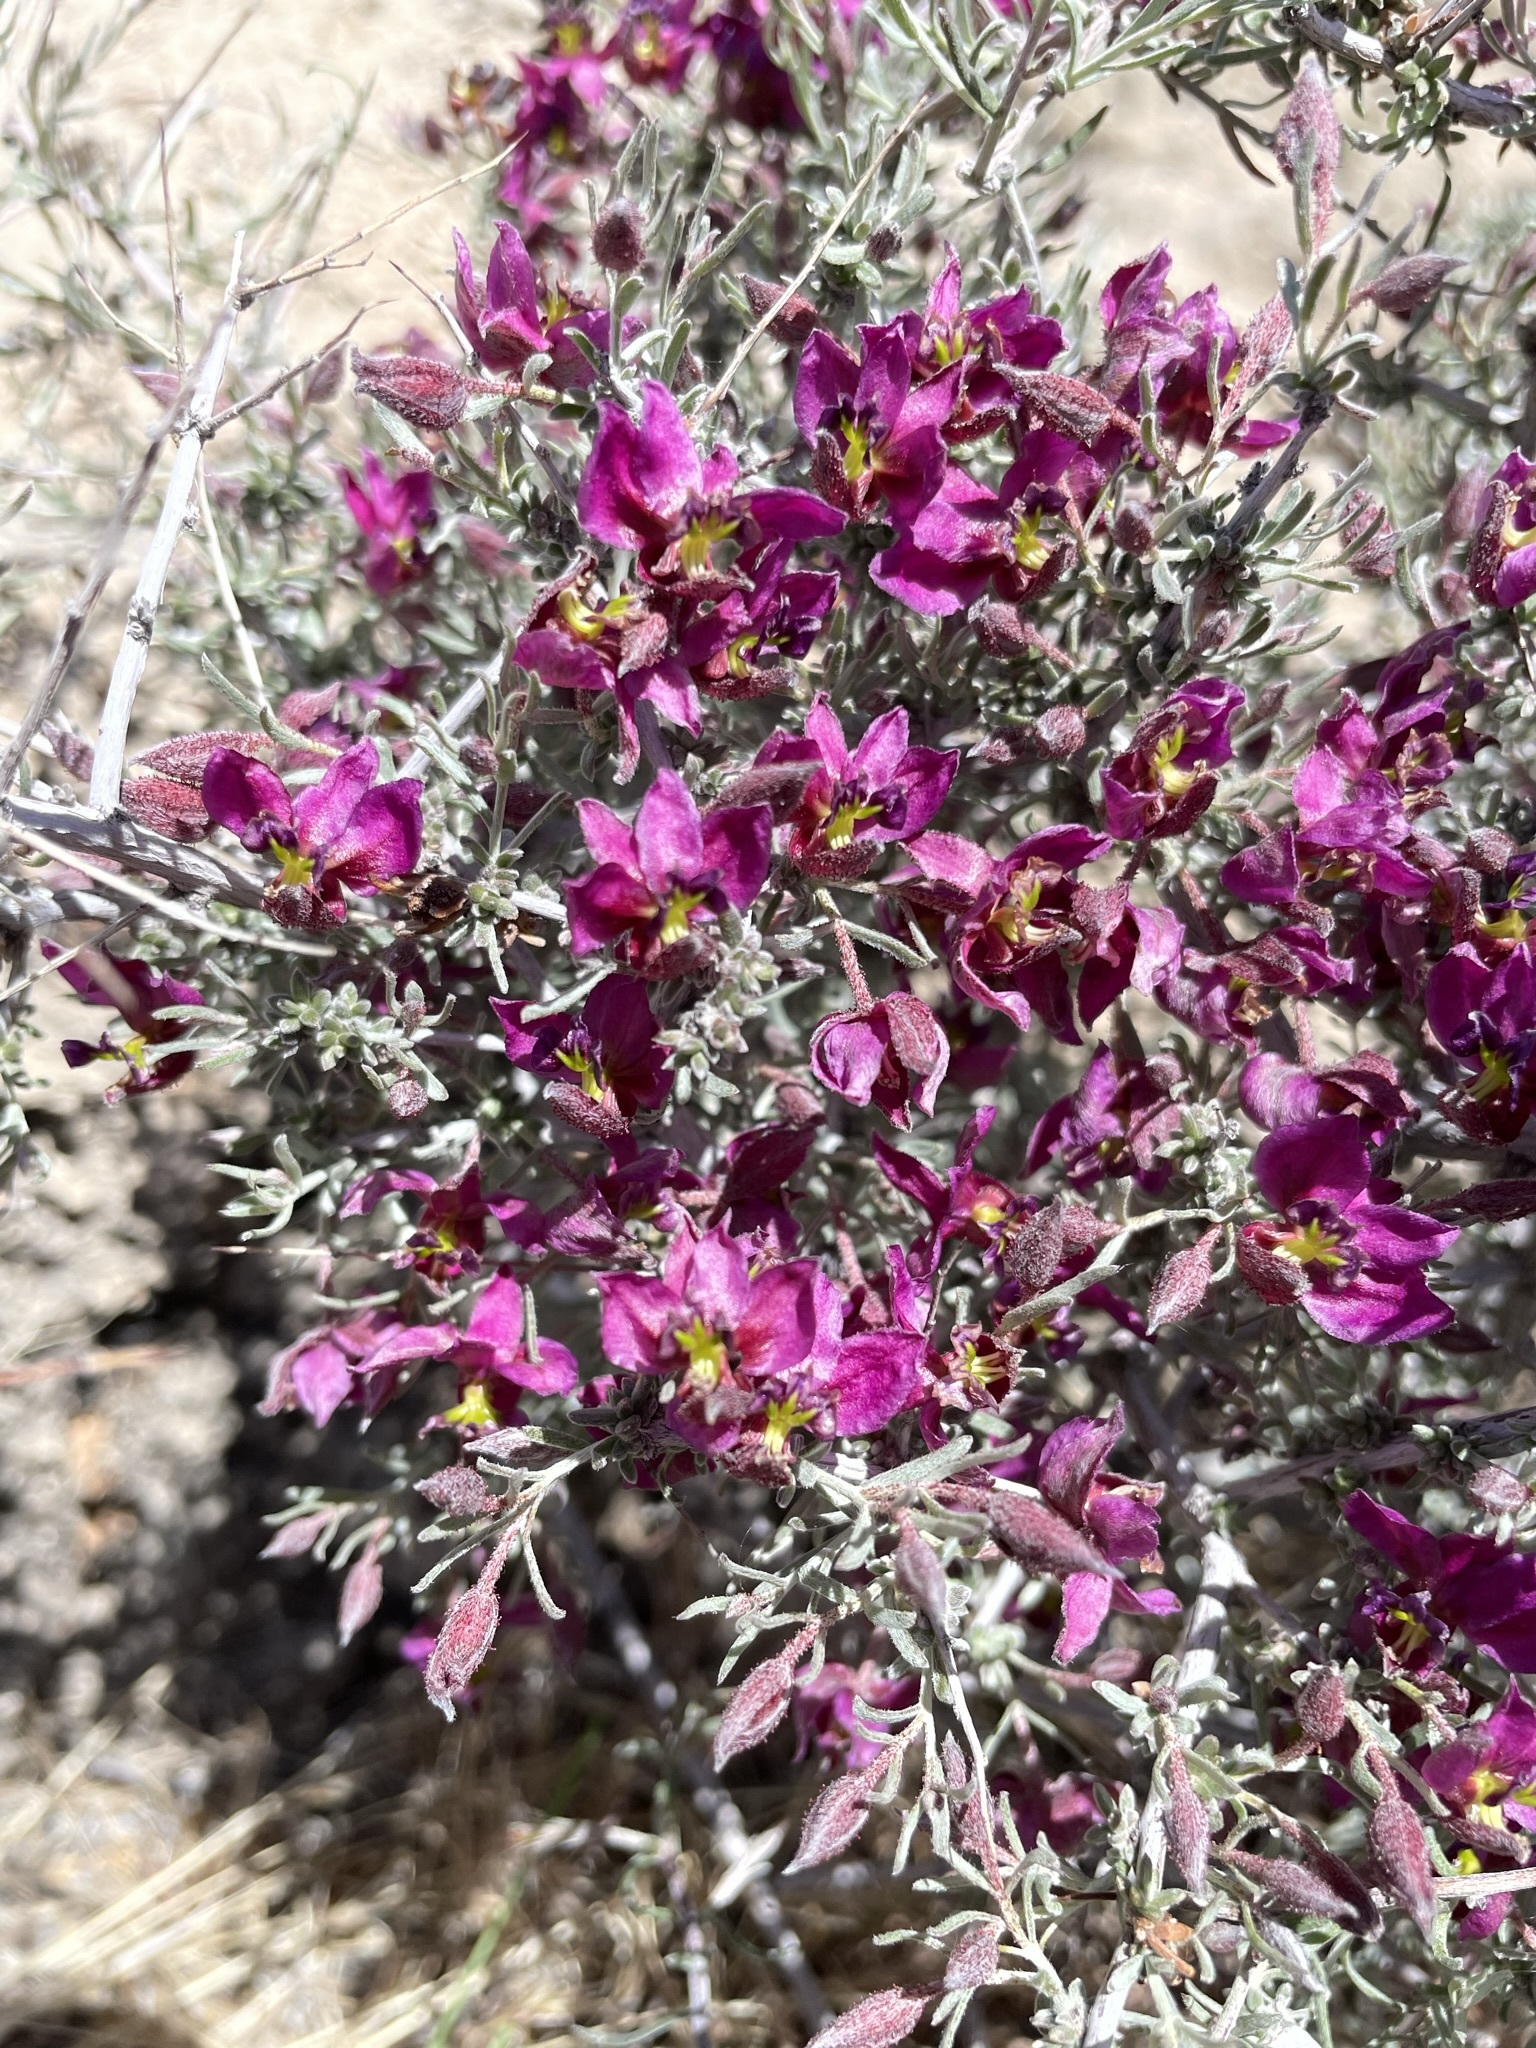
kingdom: Plantae
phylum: Tracheophyta
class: Magnoliopsida
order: Zygophyllales
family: Krameriaceae
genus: Krameria
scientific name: Krameria erecta
